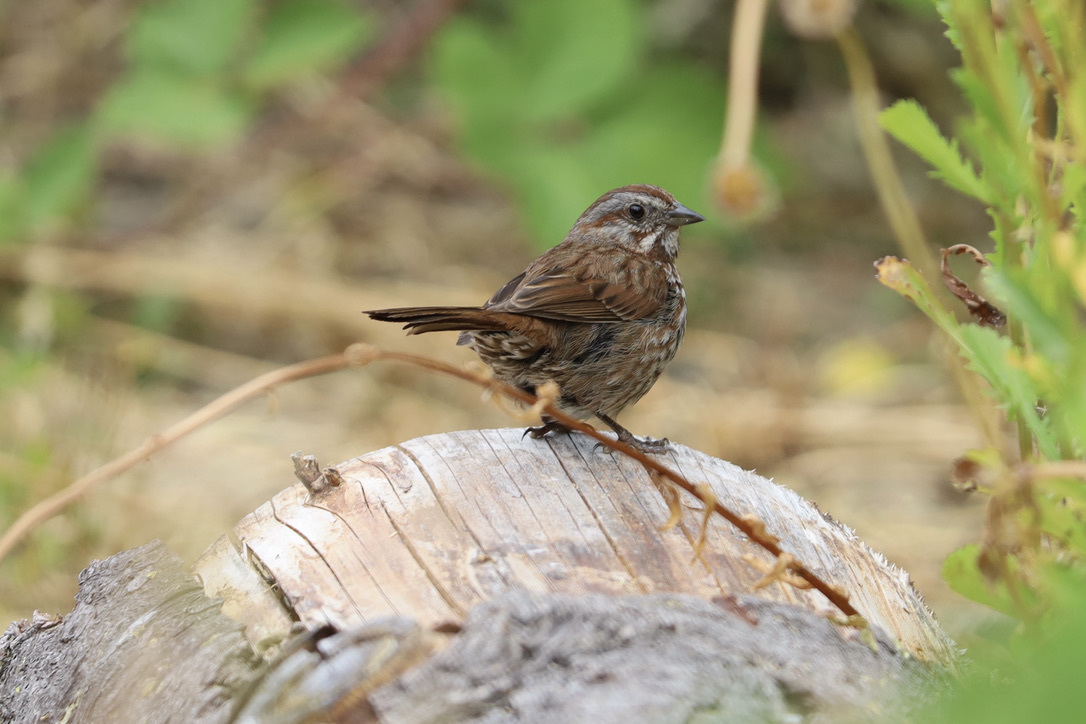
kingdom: Animalia
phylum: Chordata
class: Aves
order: Passeriformes
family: Passerellidae
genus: Melospiza
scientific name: Melospiza melodia
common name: Song sparrow
